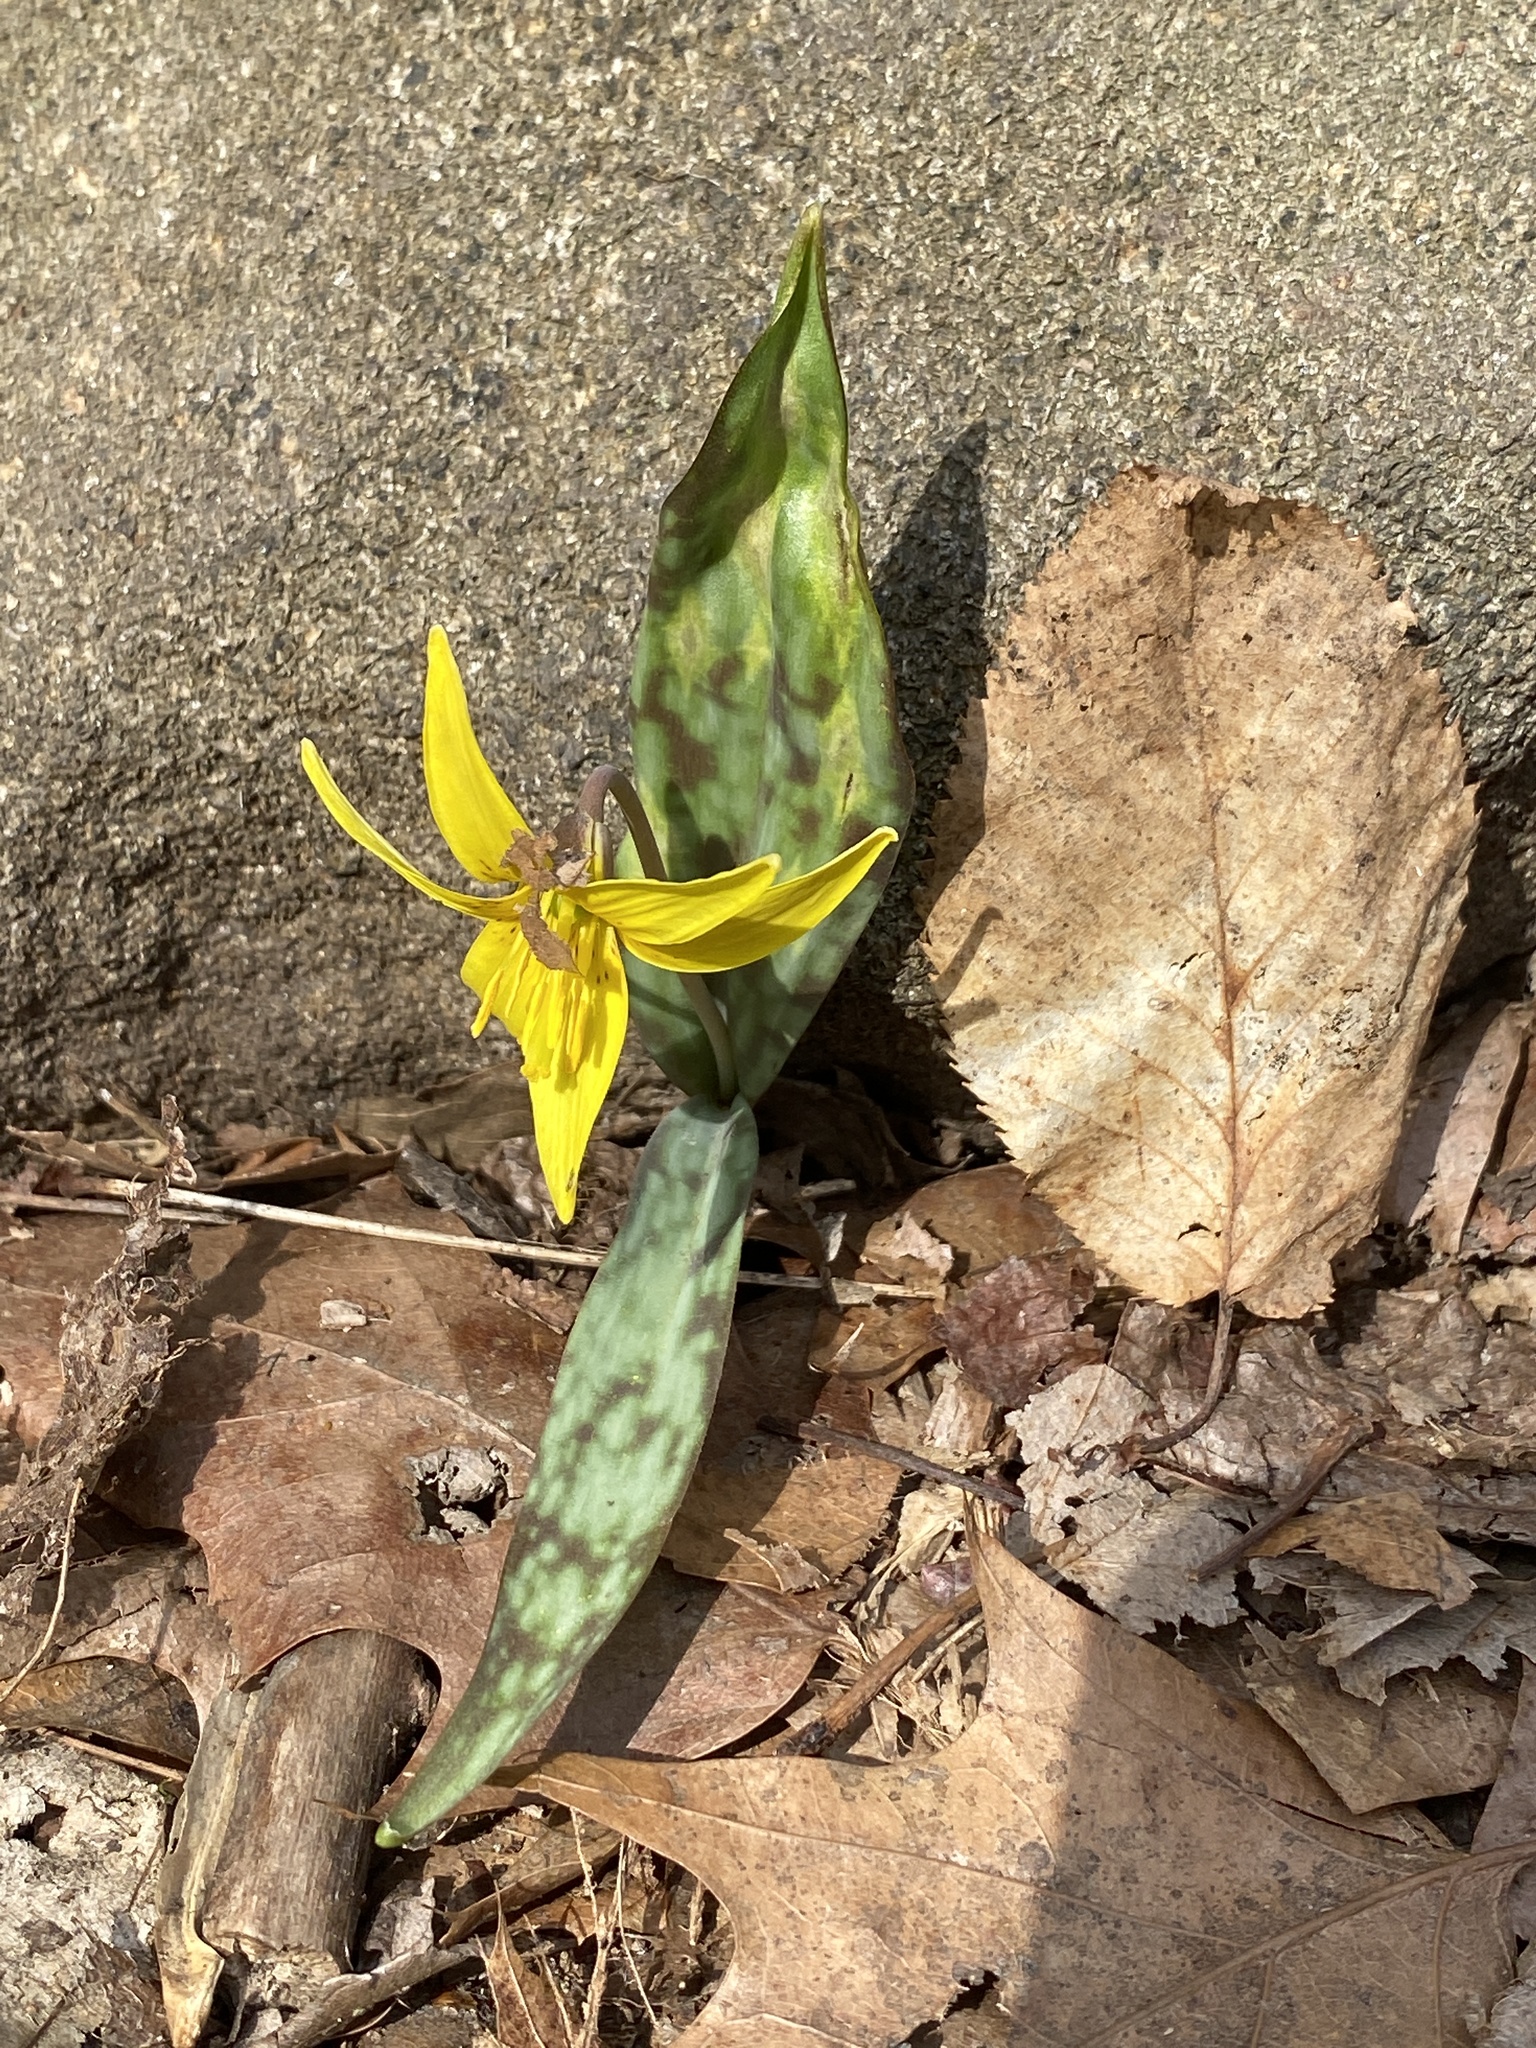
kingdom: Plantae
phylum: Tracheophyta
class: Liliopsida
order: Liliales
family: Liliaceae
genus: Erythronium
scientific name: Erythronium americanum
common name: Yellow adder's-tongue
